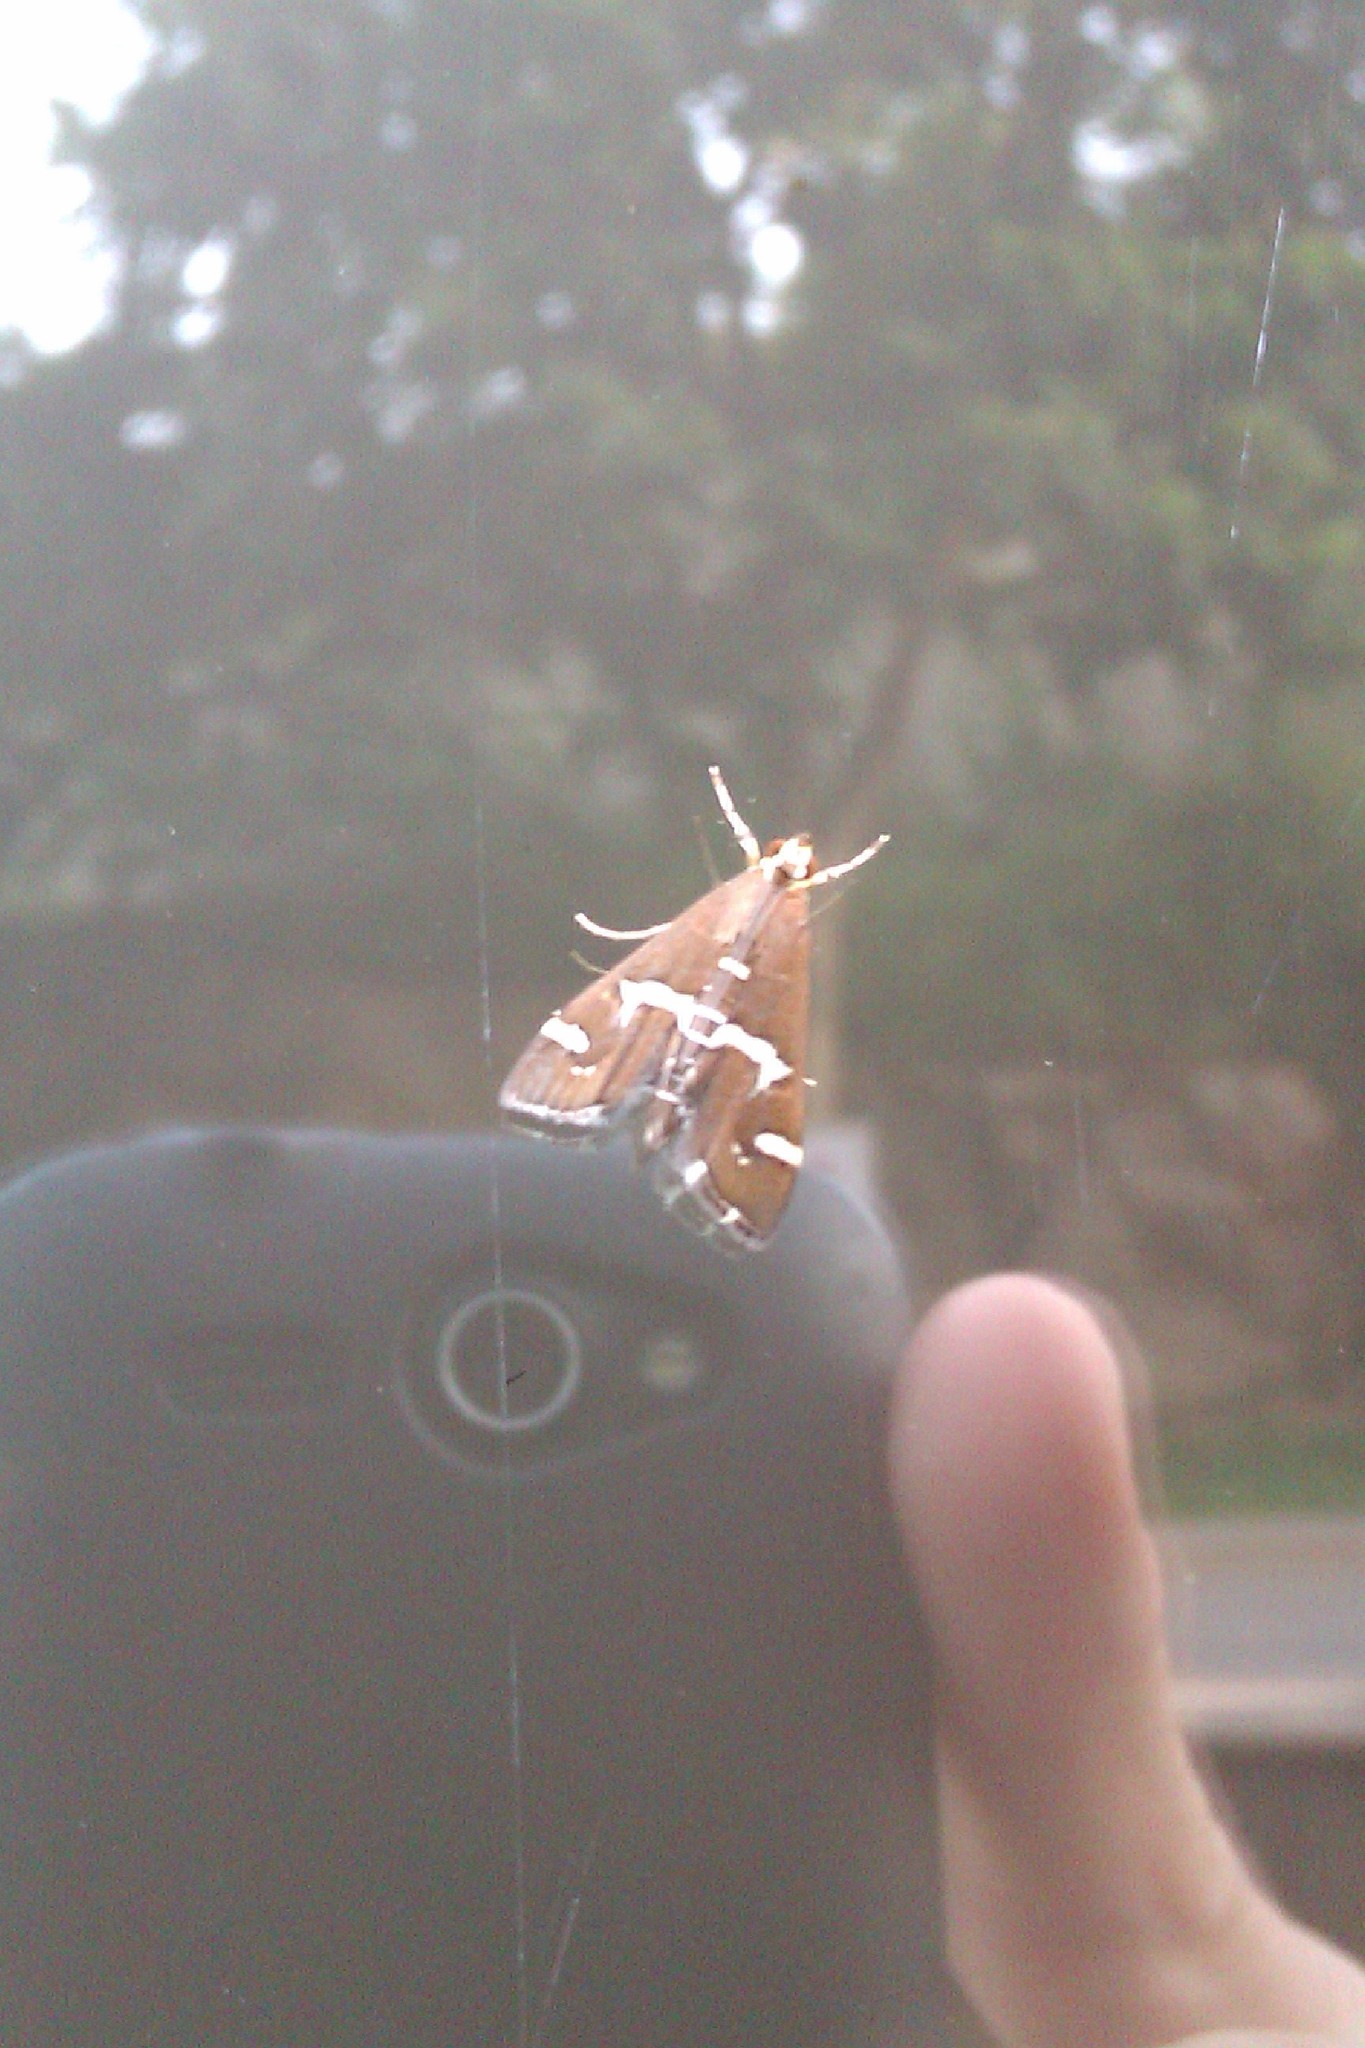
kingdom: Animalia
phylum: Arthropoda
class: Insecta
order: Lepidoptera
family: Crambidae
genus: Spoladea
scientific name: Spoladea recurvalis
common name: Beet webworm moth
